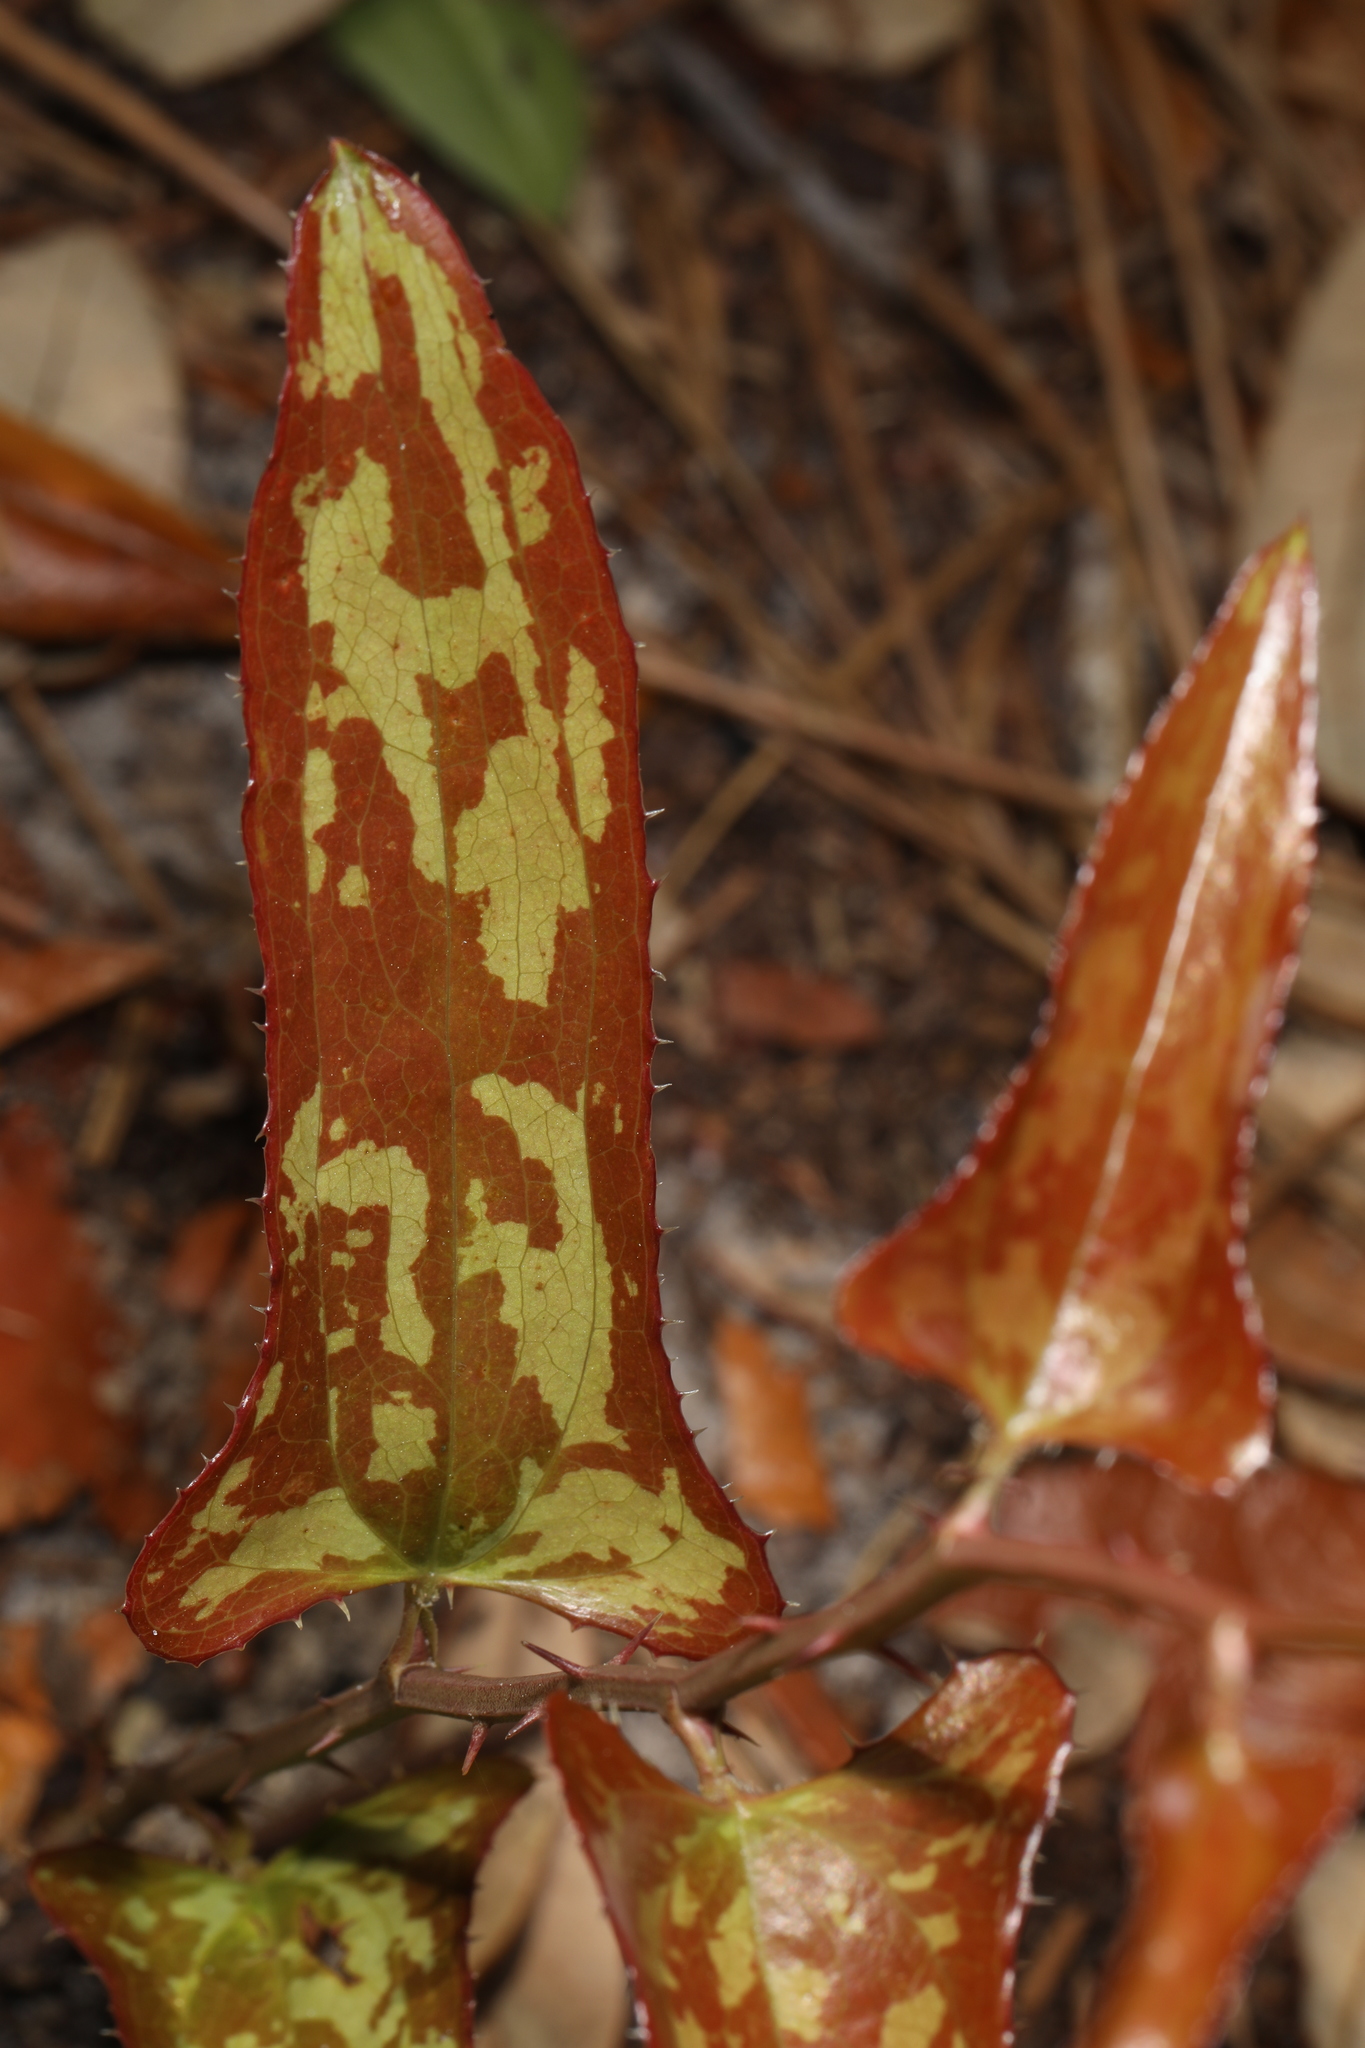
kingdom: Plantae
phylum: Tracheophyta
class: Liliopsida
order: Liliales
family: Smilacaceae
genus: Smilax
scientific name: Smilax bona-nox
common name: Catbrier
